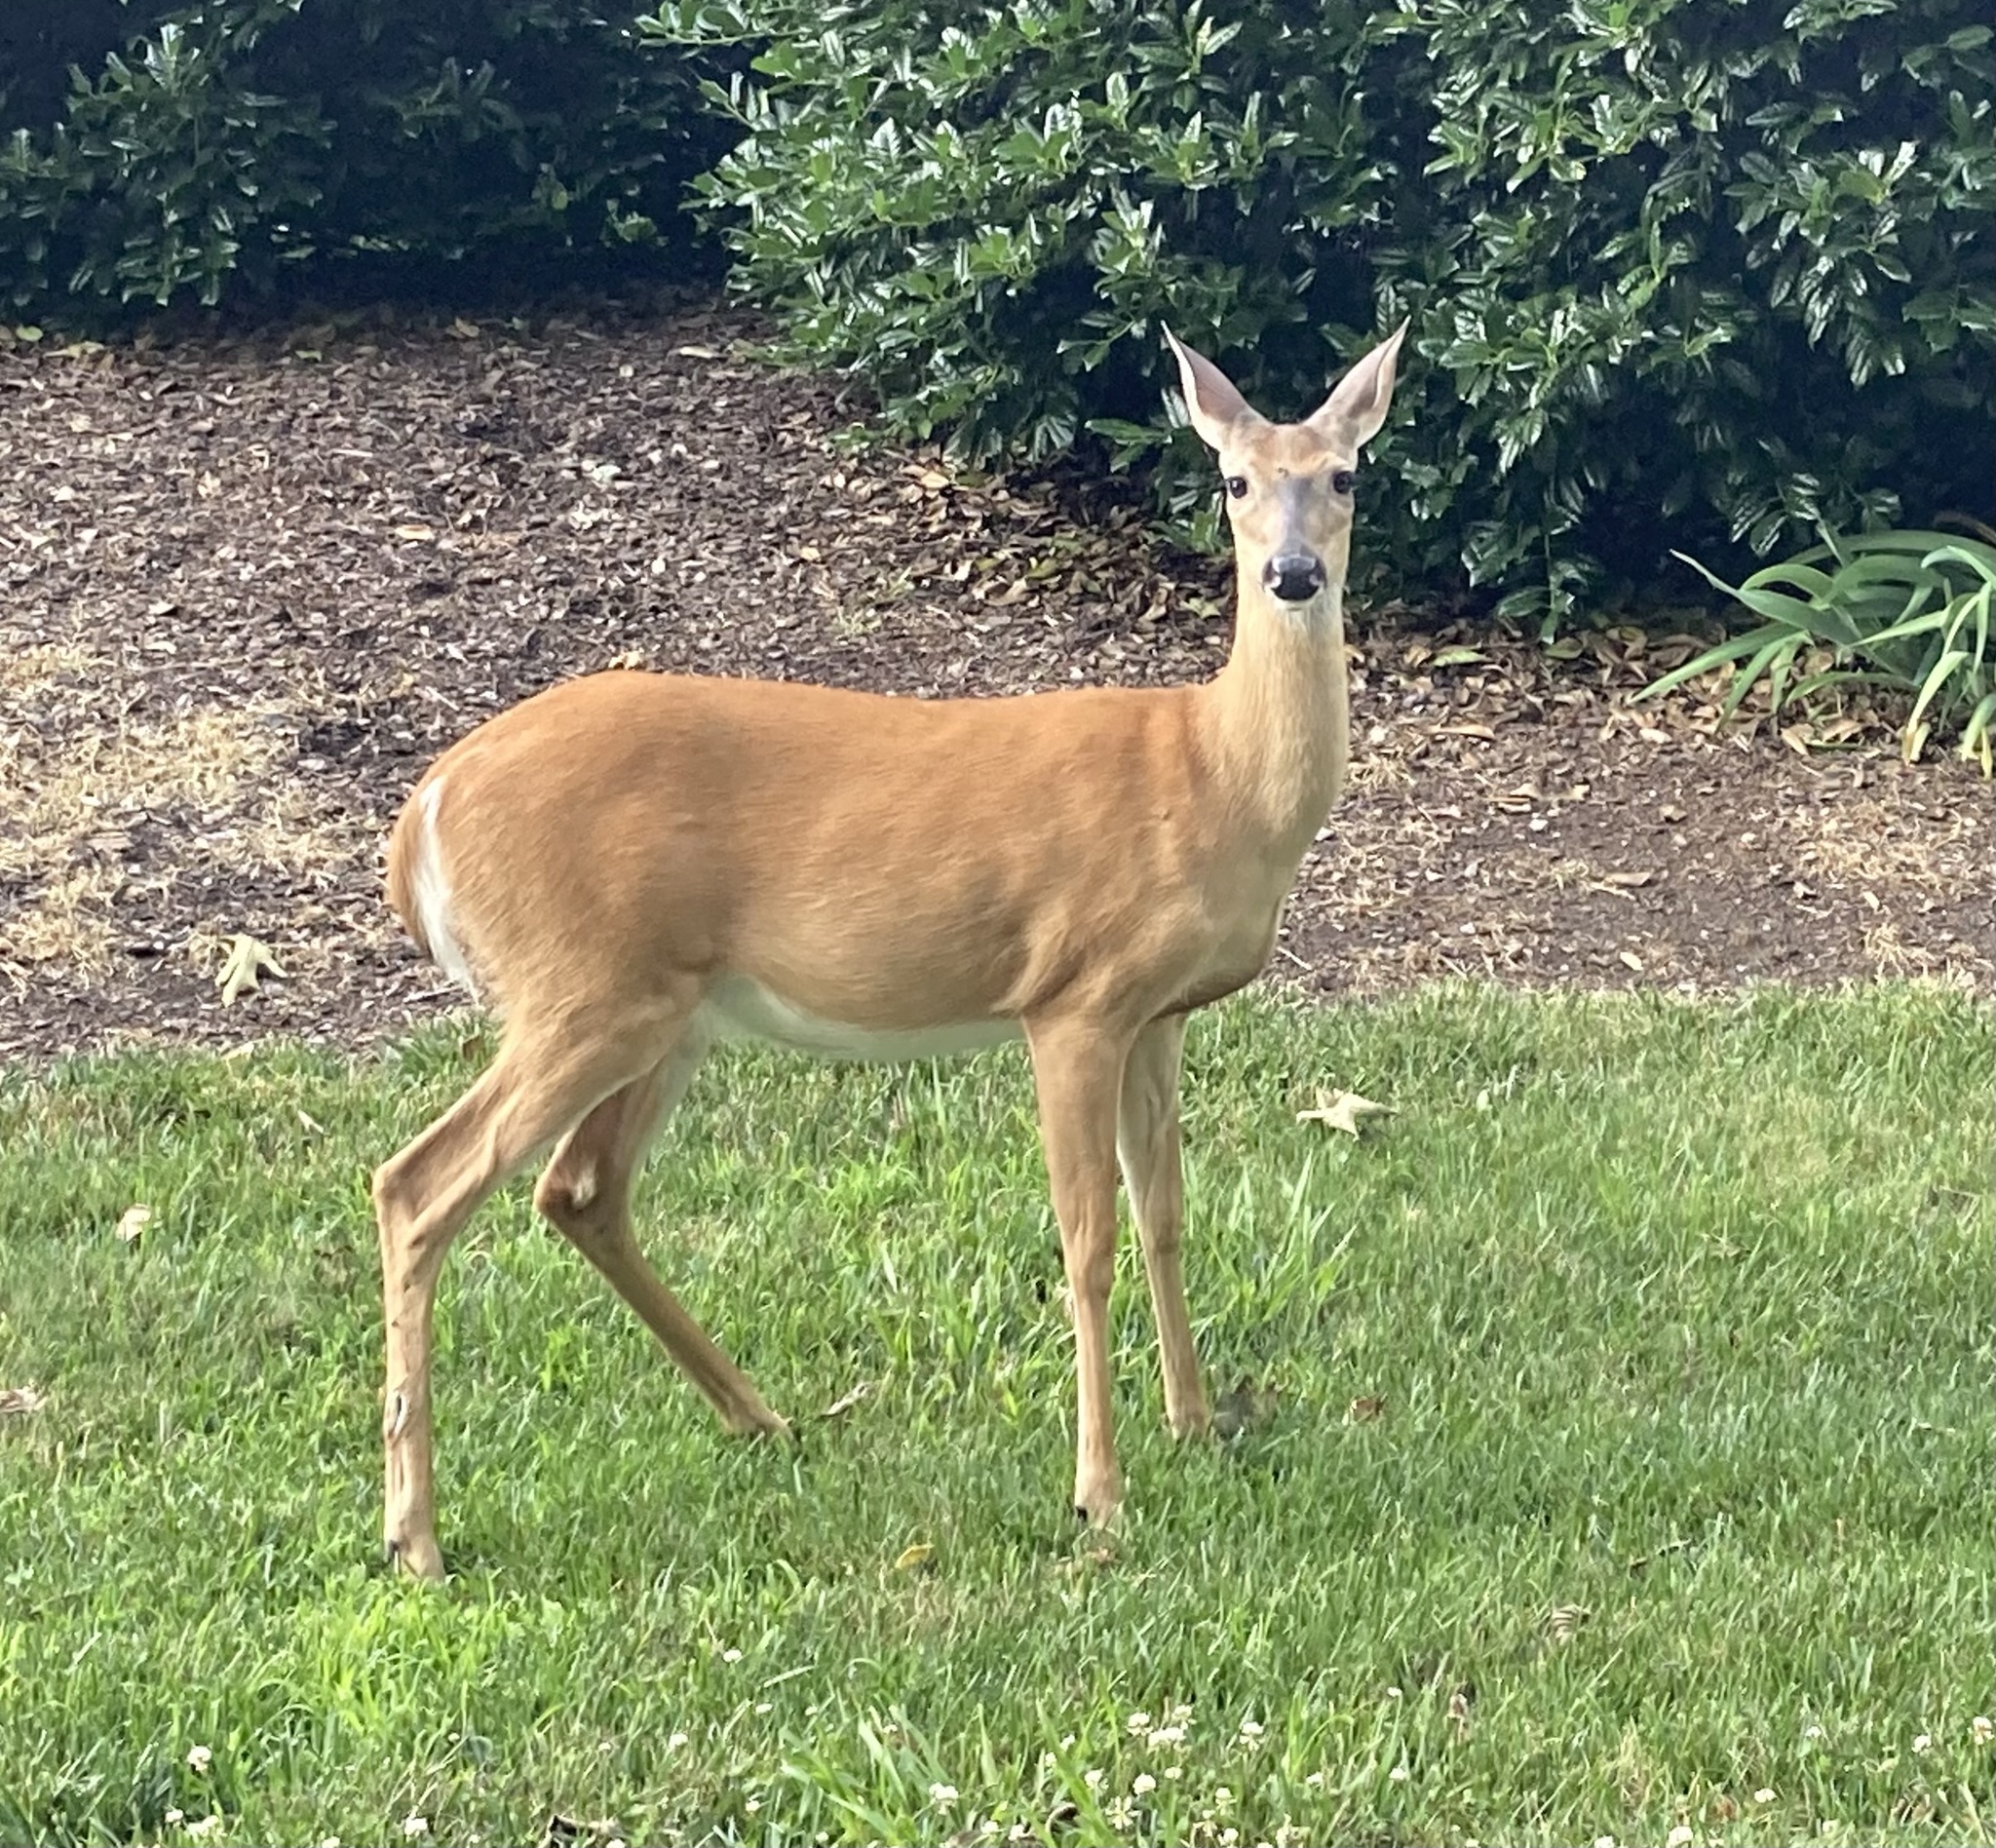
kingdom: Animalia
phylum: Chordata
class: Mammalia
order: Artiodactyla
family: Cervidae
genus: Odocoileus
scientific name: Odocoileus virginianus
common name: White-tailed deer
